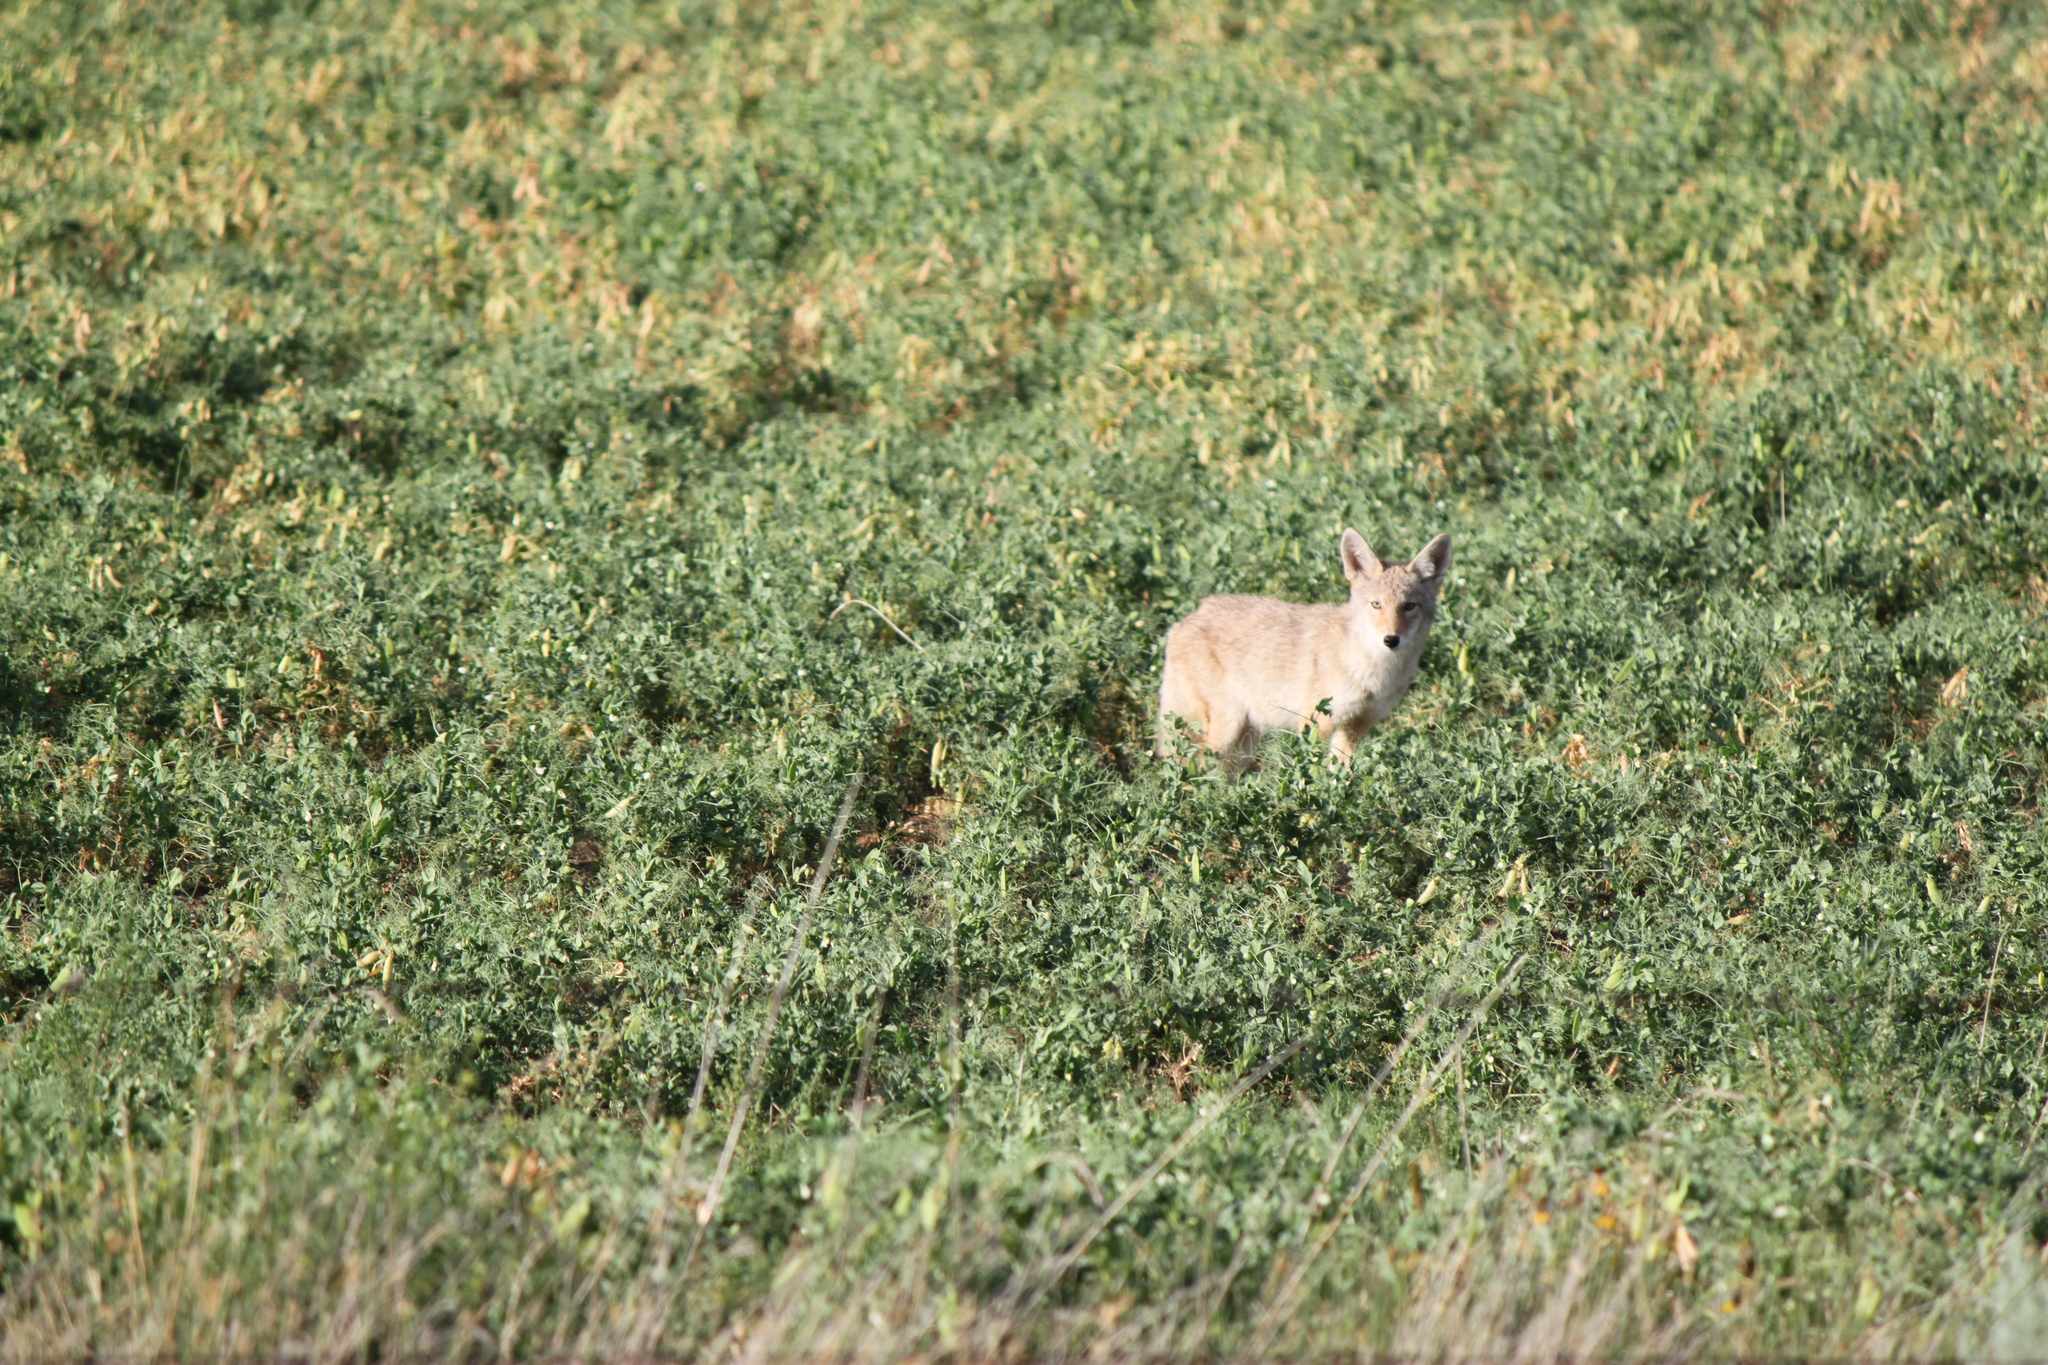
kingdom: Animalia
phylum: Chordata
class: Mammalia
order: Carnivora
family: Canidae
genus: Canis
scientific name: Canis latrans
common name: Coyote
